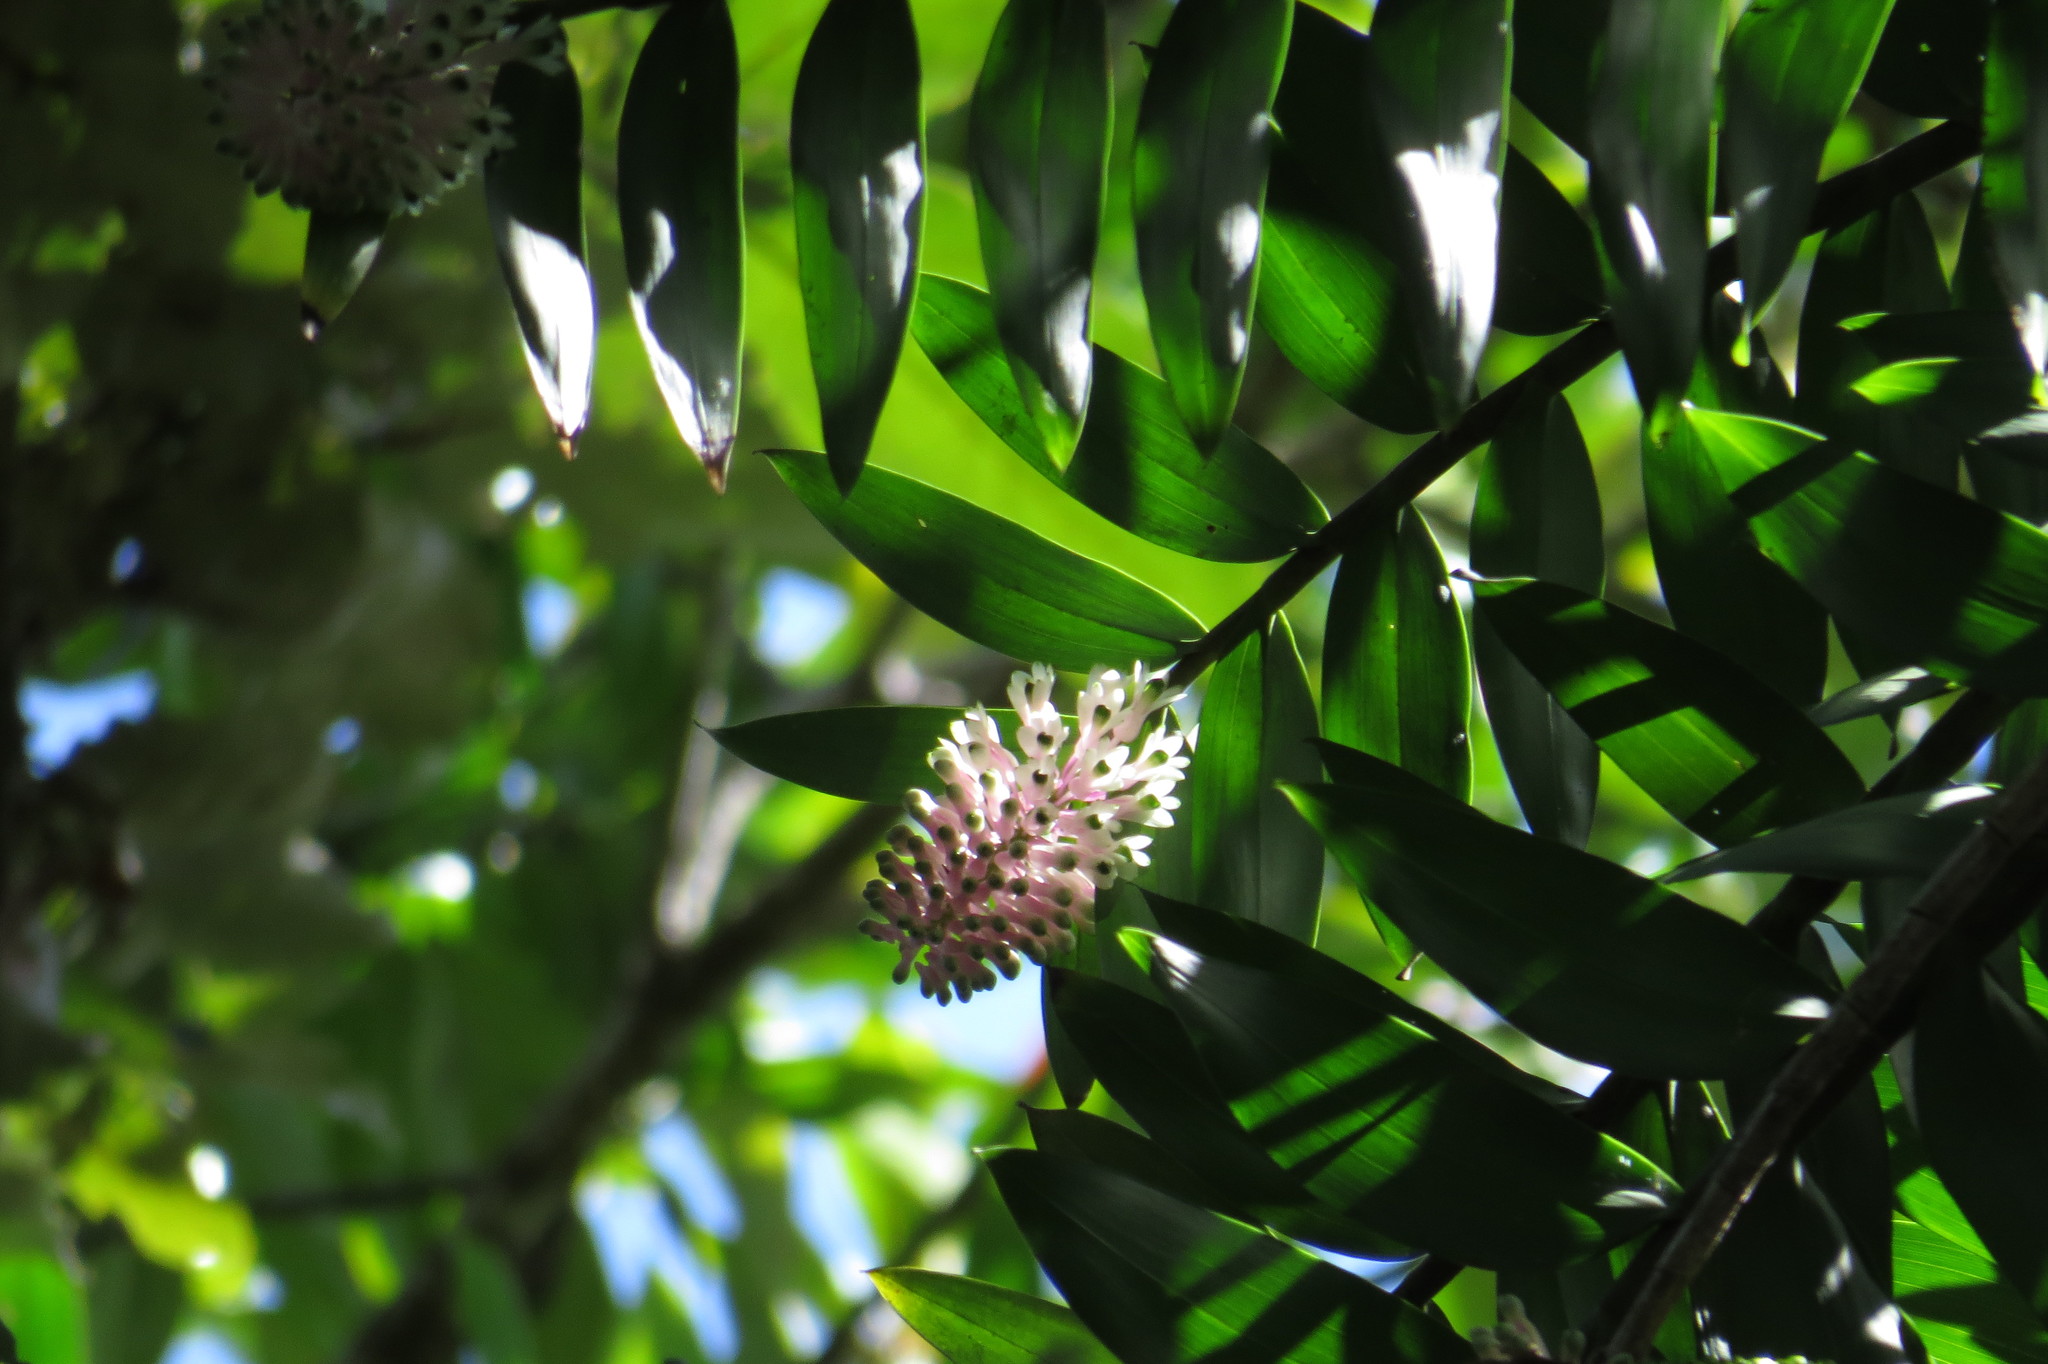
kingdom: Plantae
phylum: Tracheophyta
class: Liliopsida
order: Asparagales
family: Orchidaceae
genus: Dendrobium
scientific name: Dendrobium smillieae
